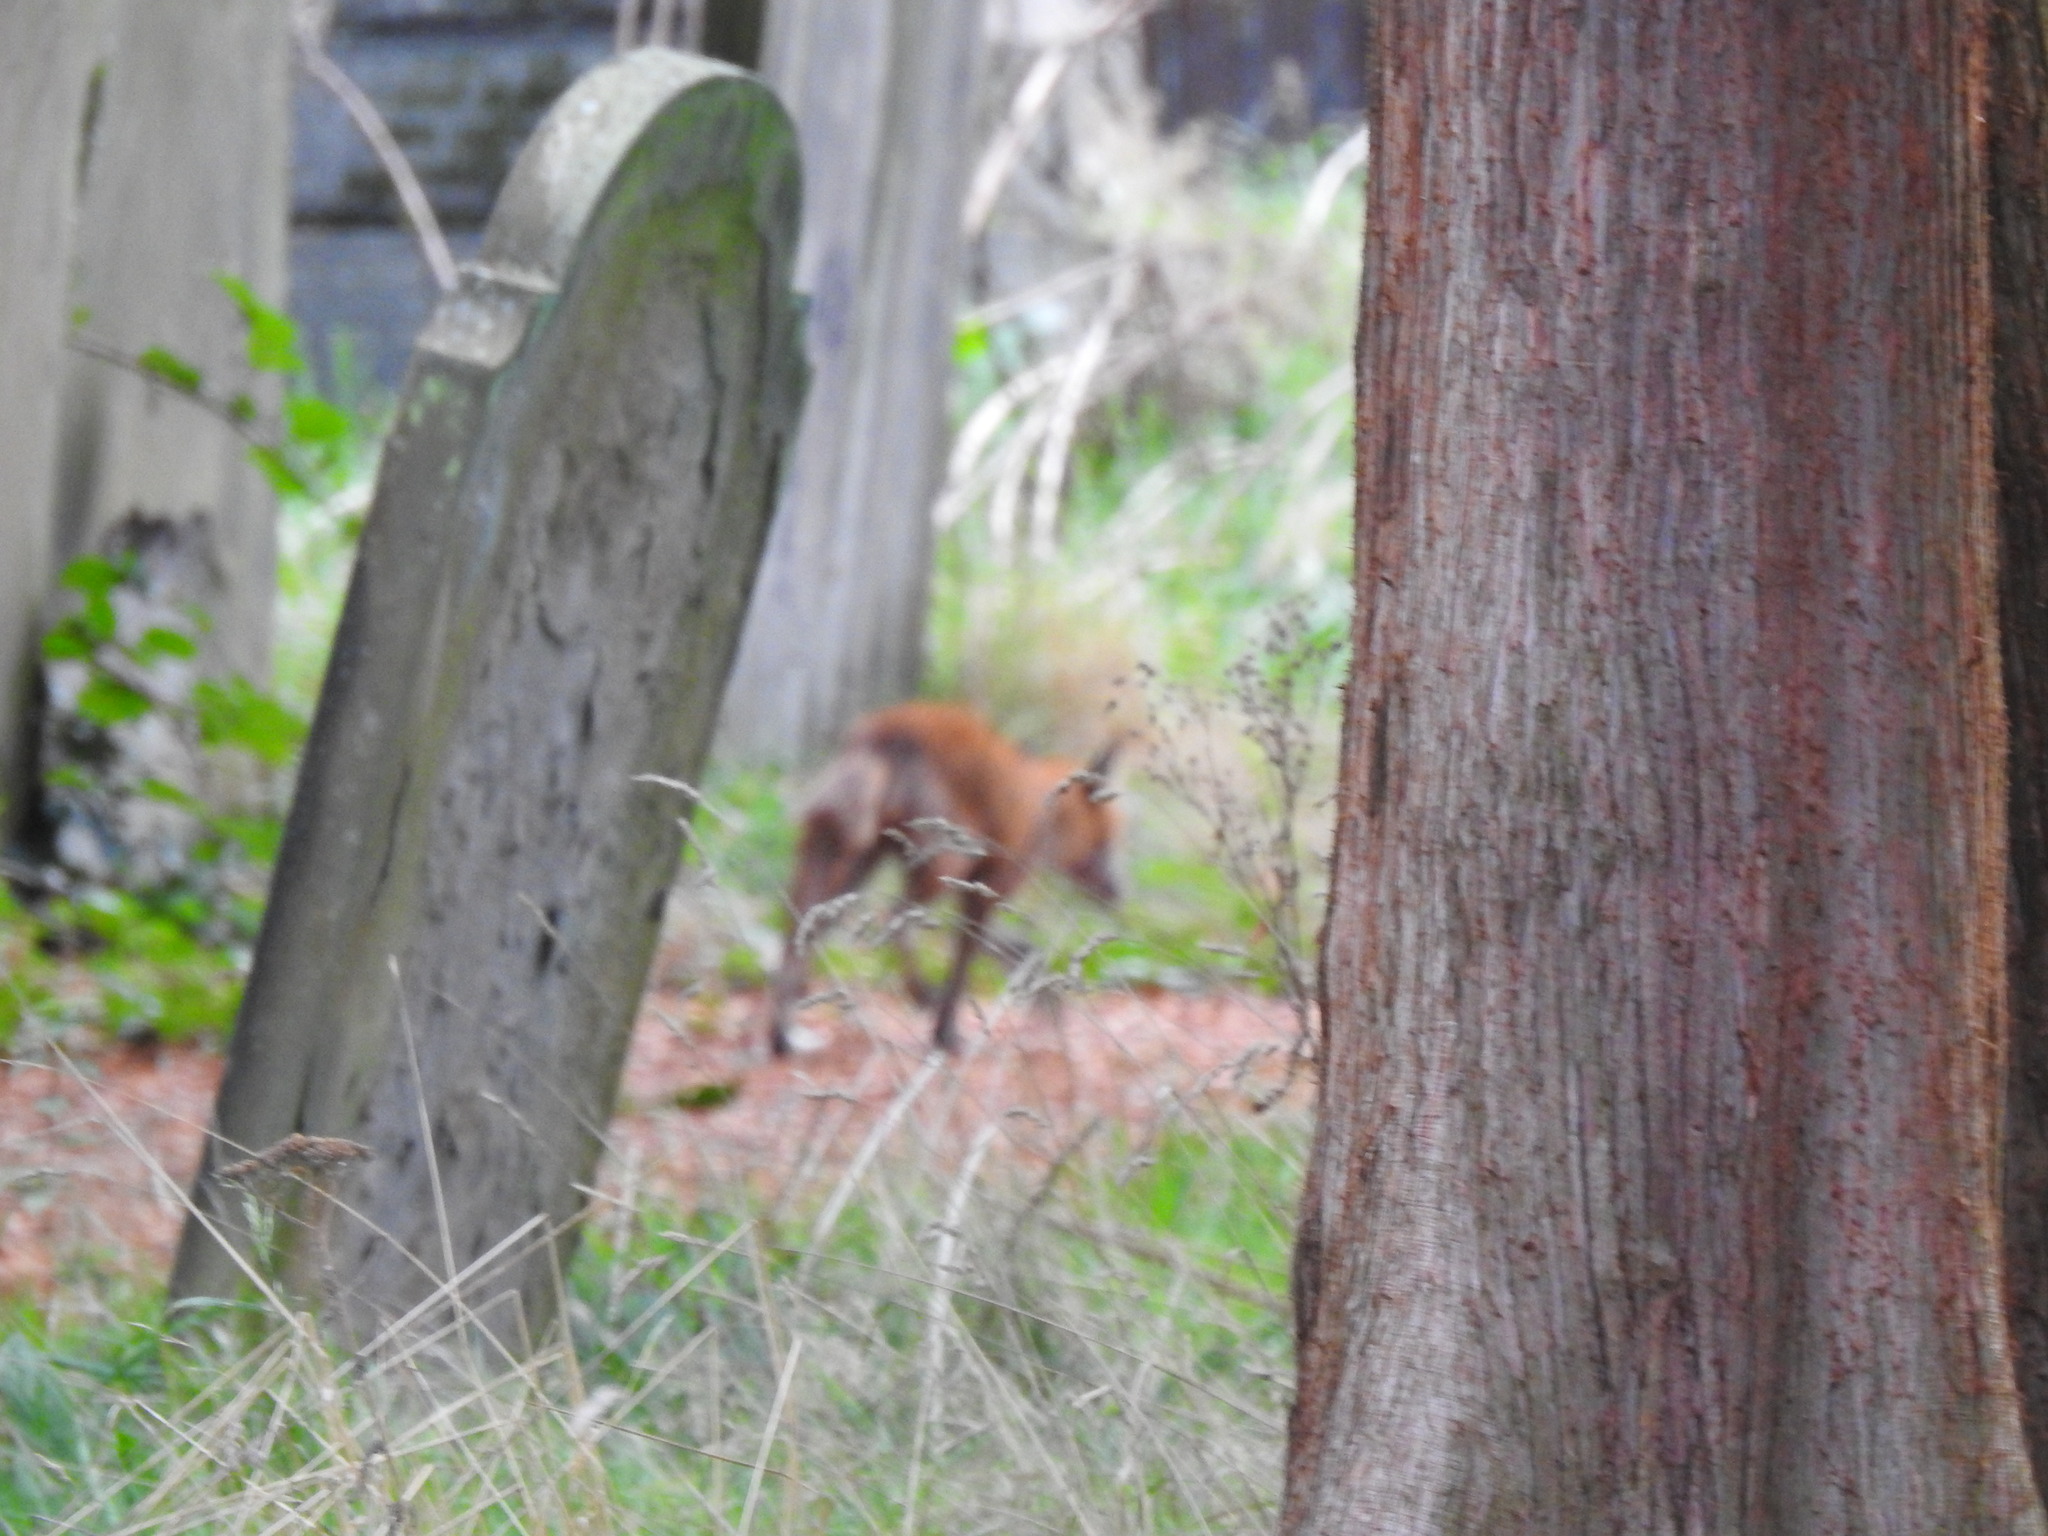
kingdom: Animalia
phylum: Chordata
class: Mammalia
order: Carnivora
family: Canidae
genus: Vulpes
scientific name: Vulpes vulpes
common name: Red fox
